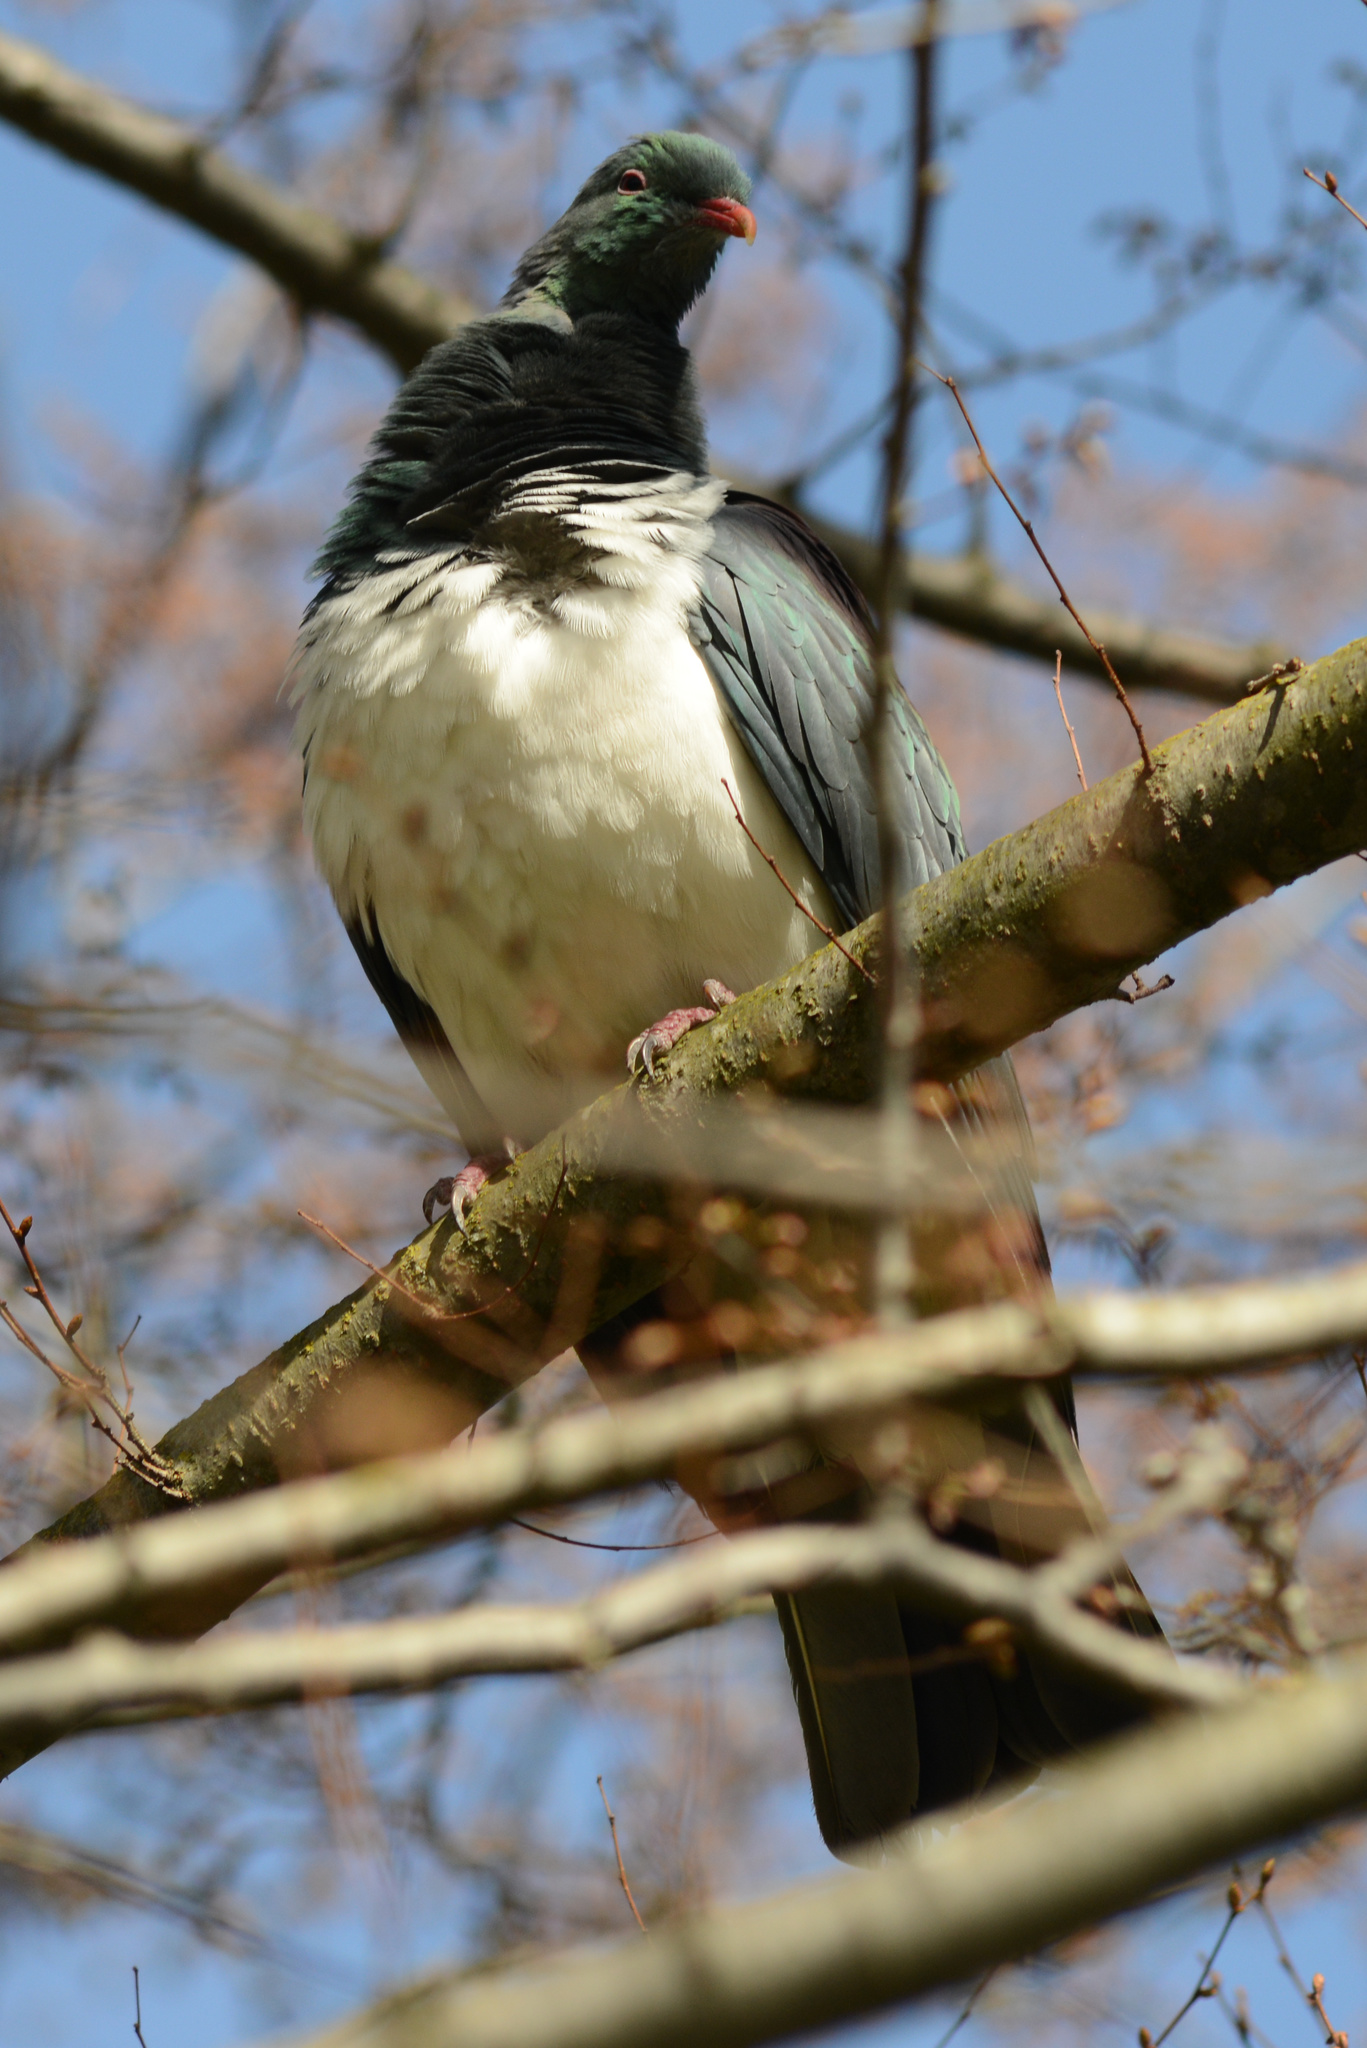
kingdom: Animalia
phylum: Chordata
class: Aves
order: Columbiformes
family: Columbidae
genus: Hemiphaga
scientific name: Hemiphaga novaeseelandiae
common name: New zealand pigeon
